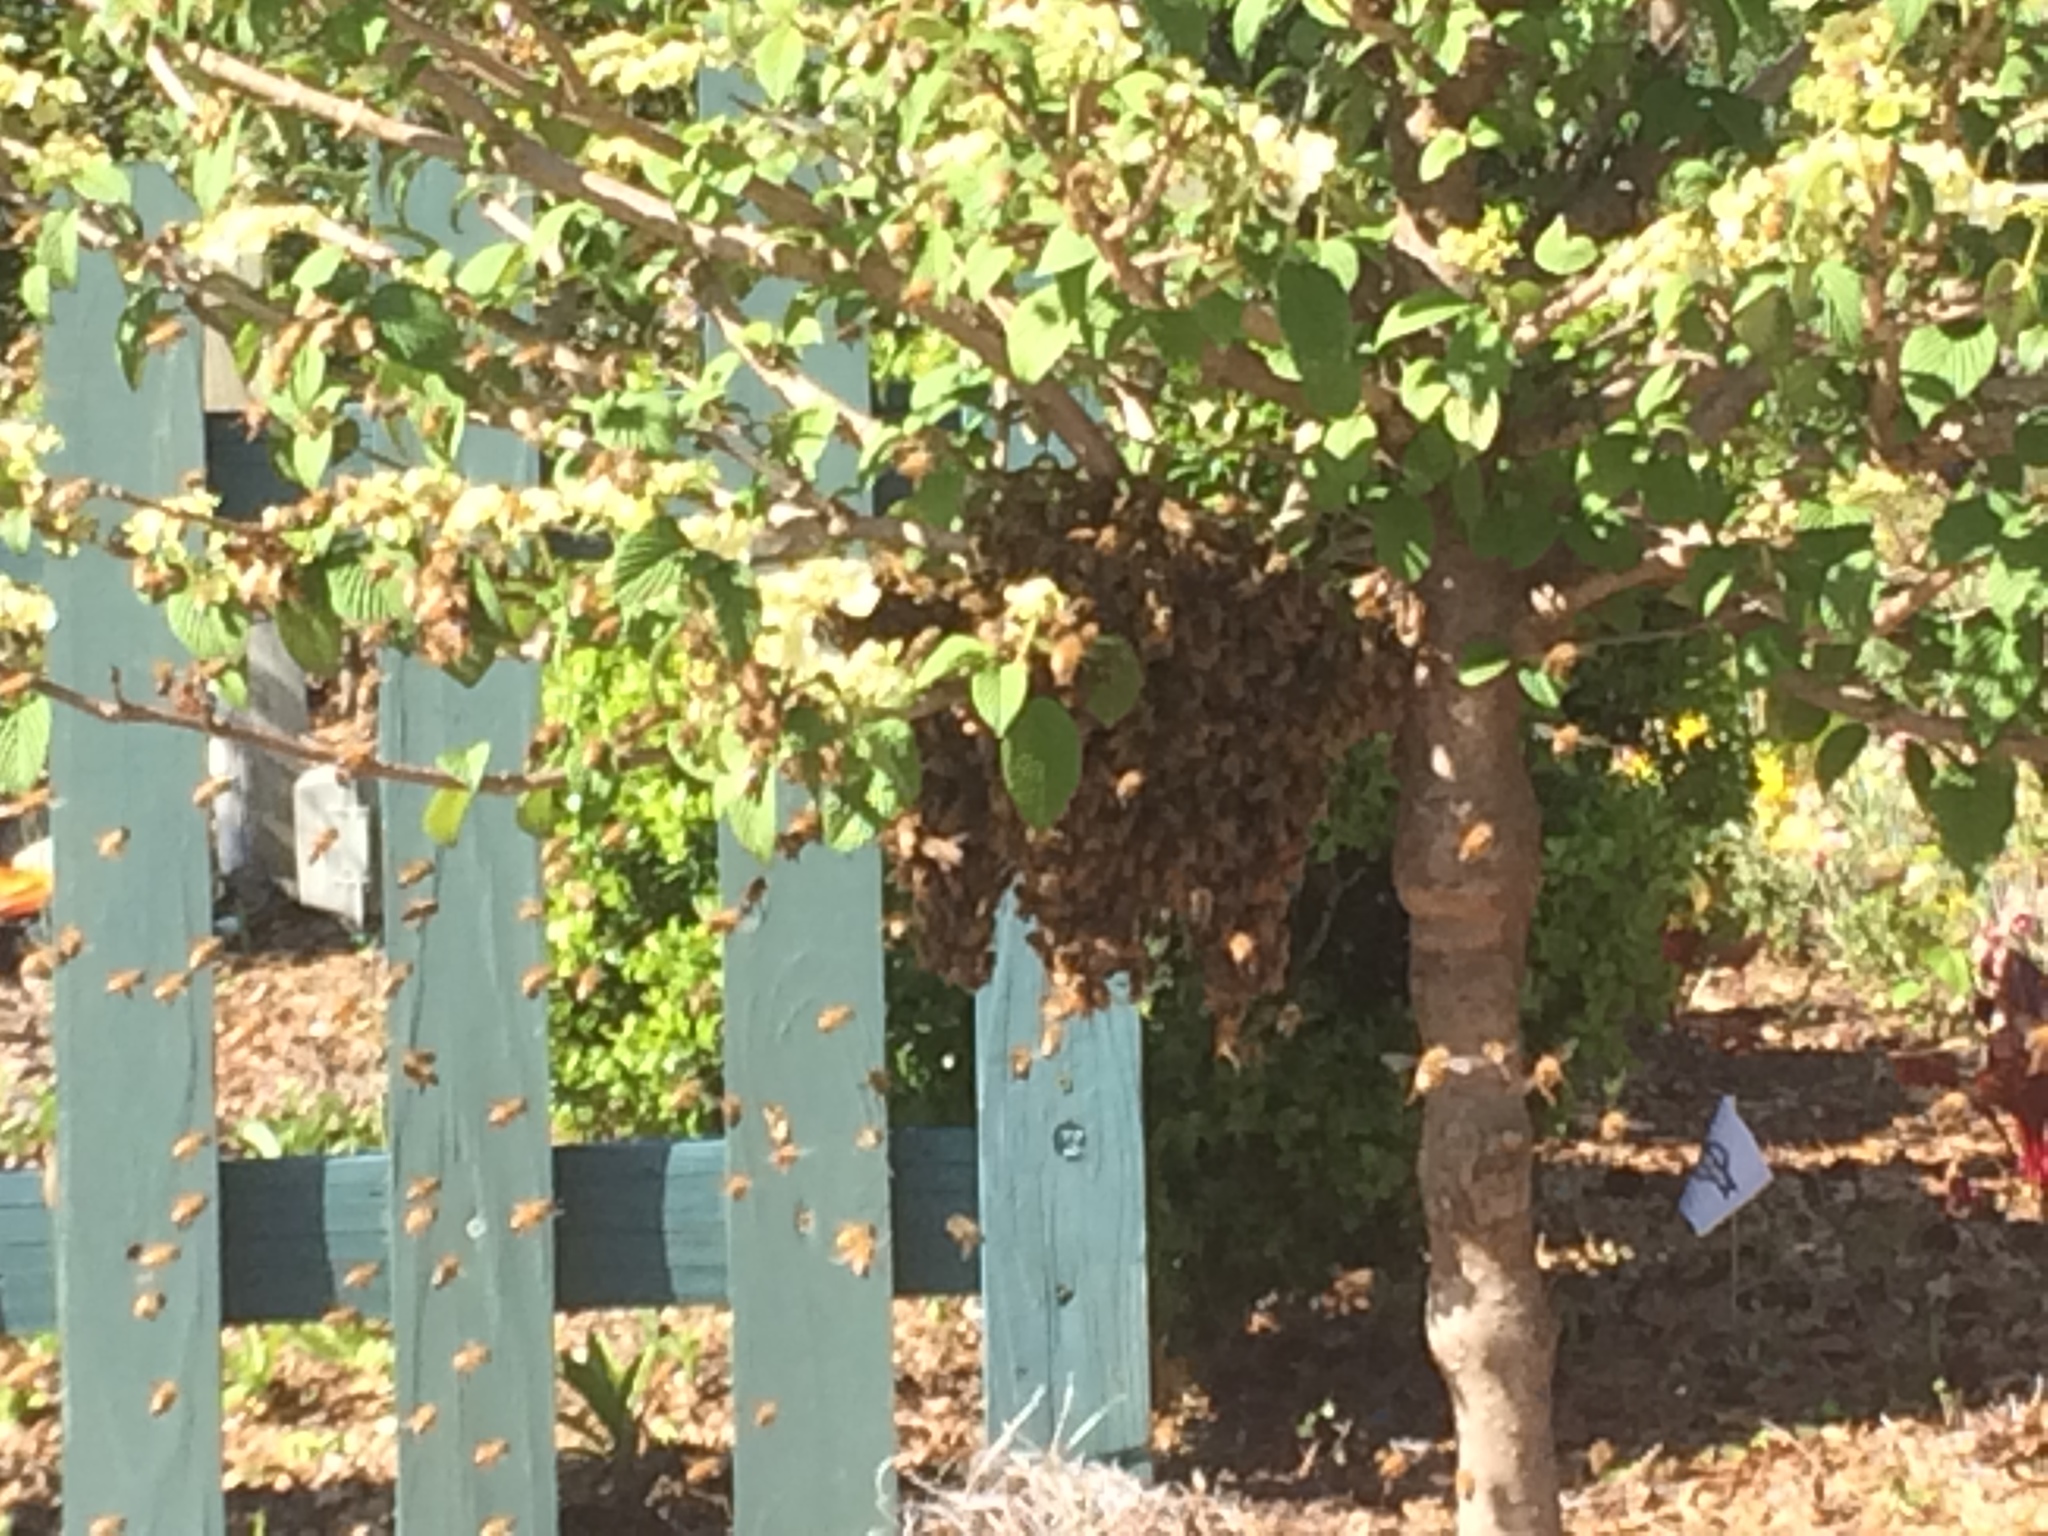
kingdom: Animalia
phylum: Arthropoda
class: Insecta
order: Hymenoptera
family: Apidae
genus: Apis
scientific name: Apis mellifera
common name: Honey bee
